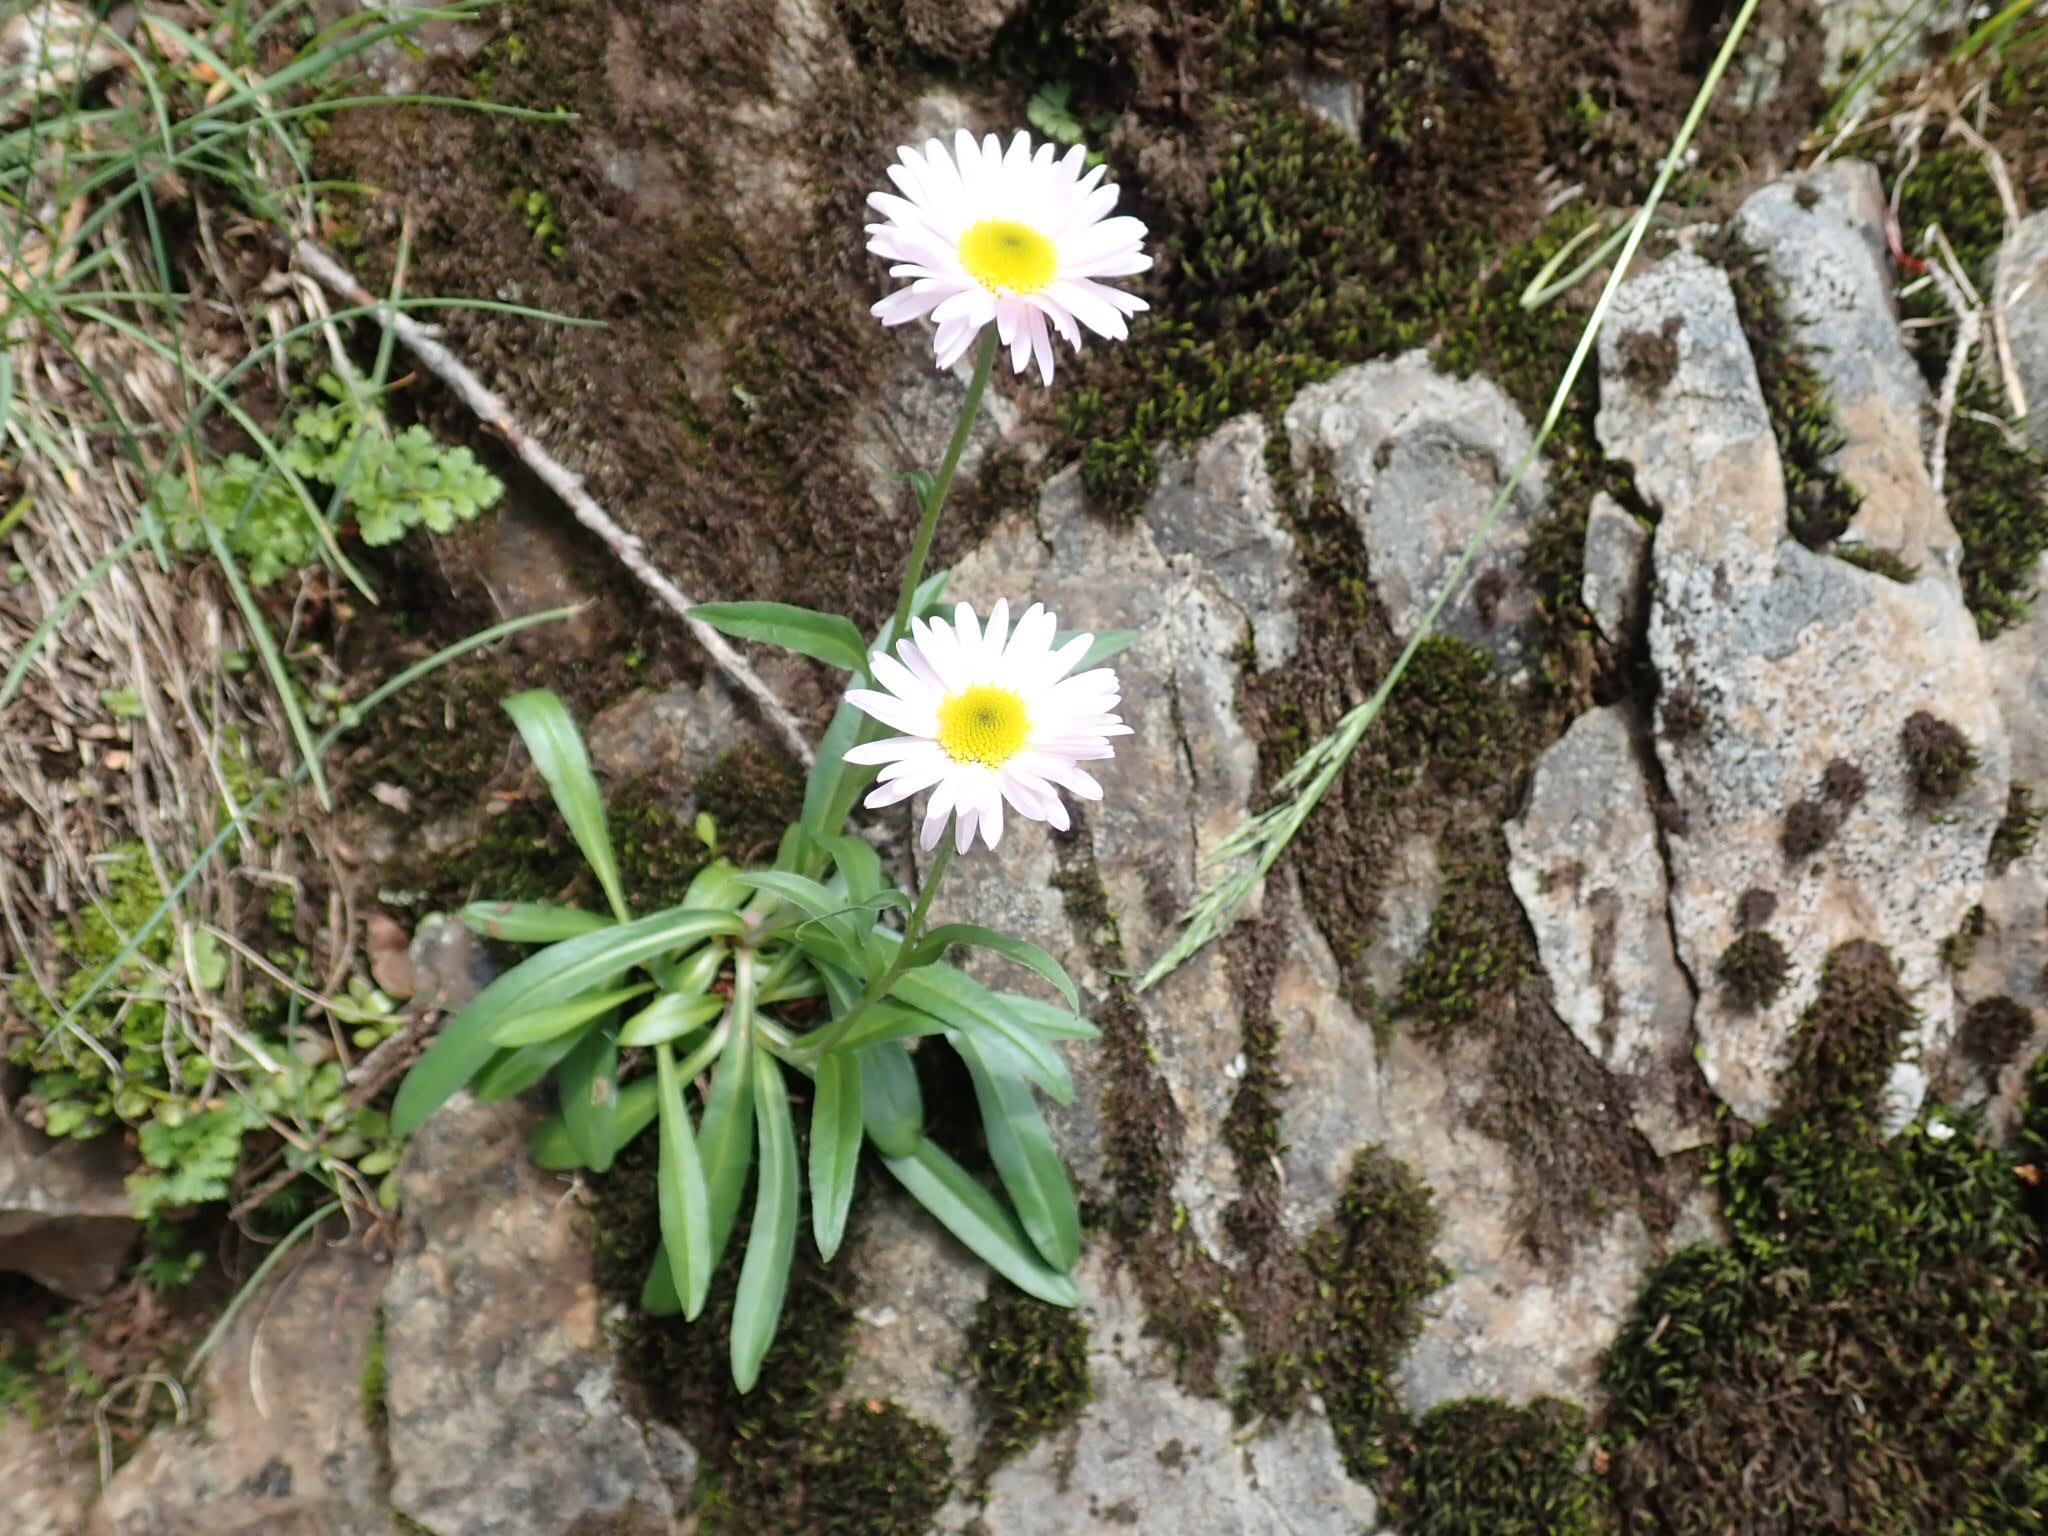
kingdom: Plantae
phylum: Tracheophyta
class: Magnoliopsida
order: Asterales
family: Asteraceae
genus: Erigeron
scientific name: Erigeron glacialis
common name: Subalpine fleabane
